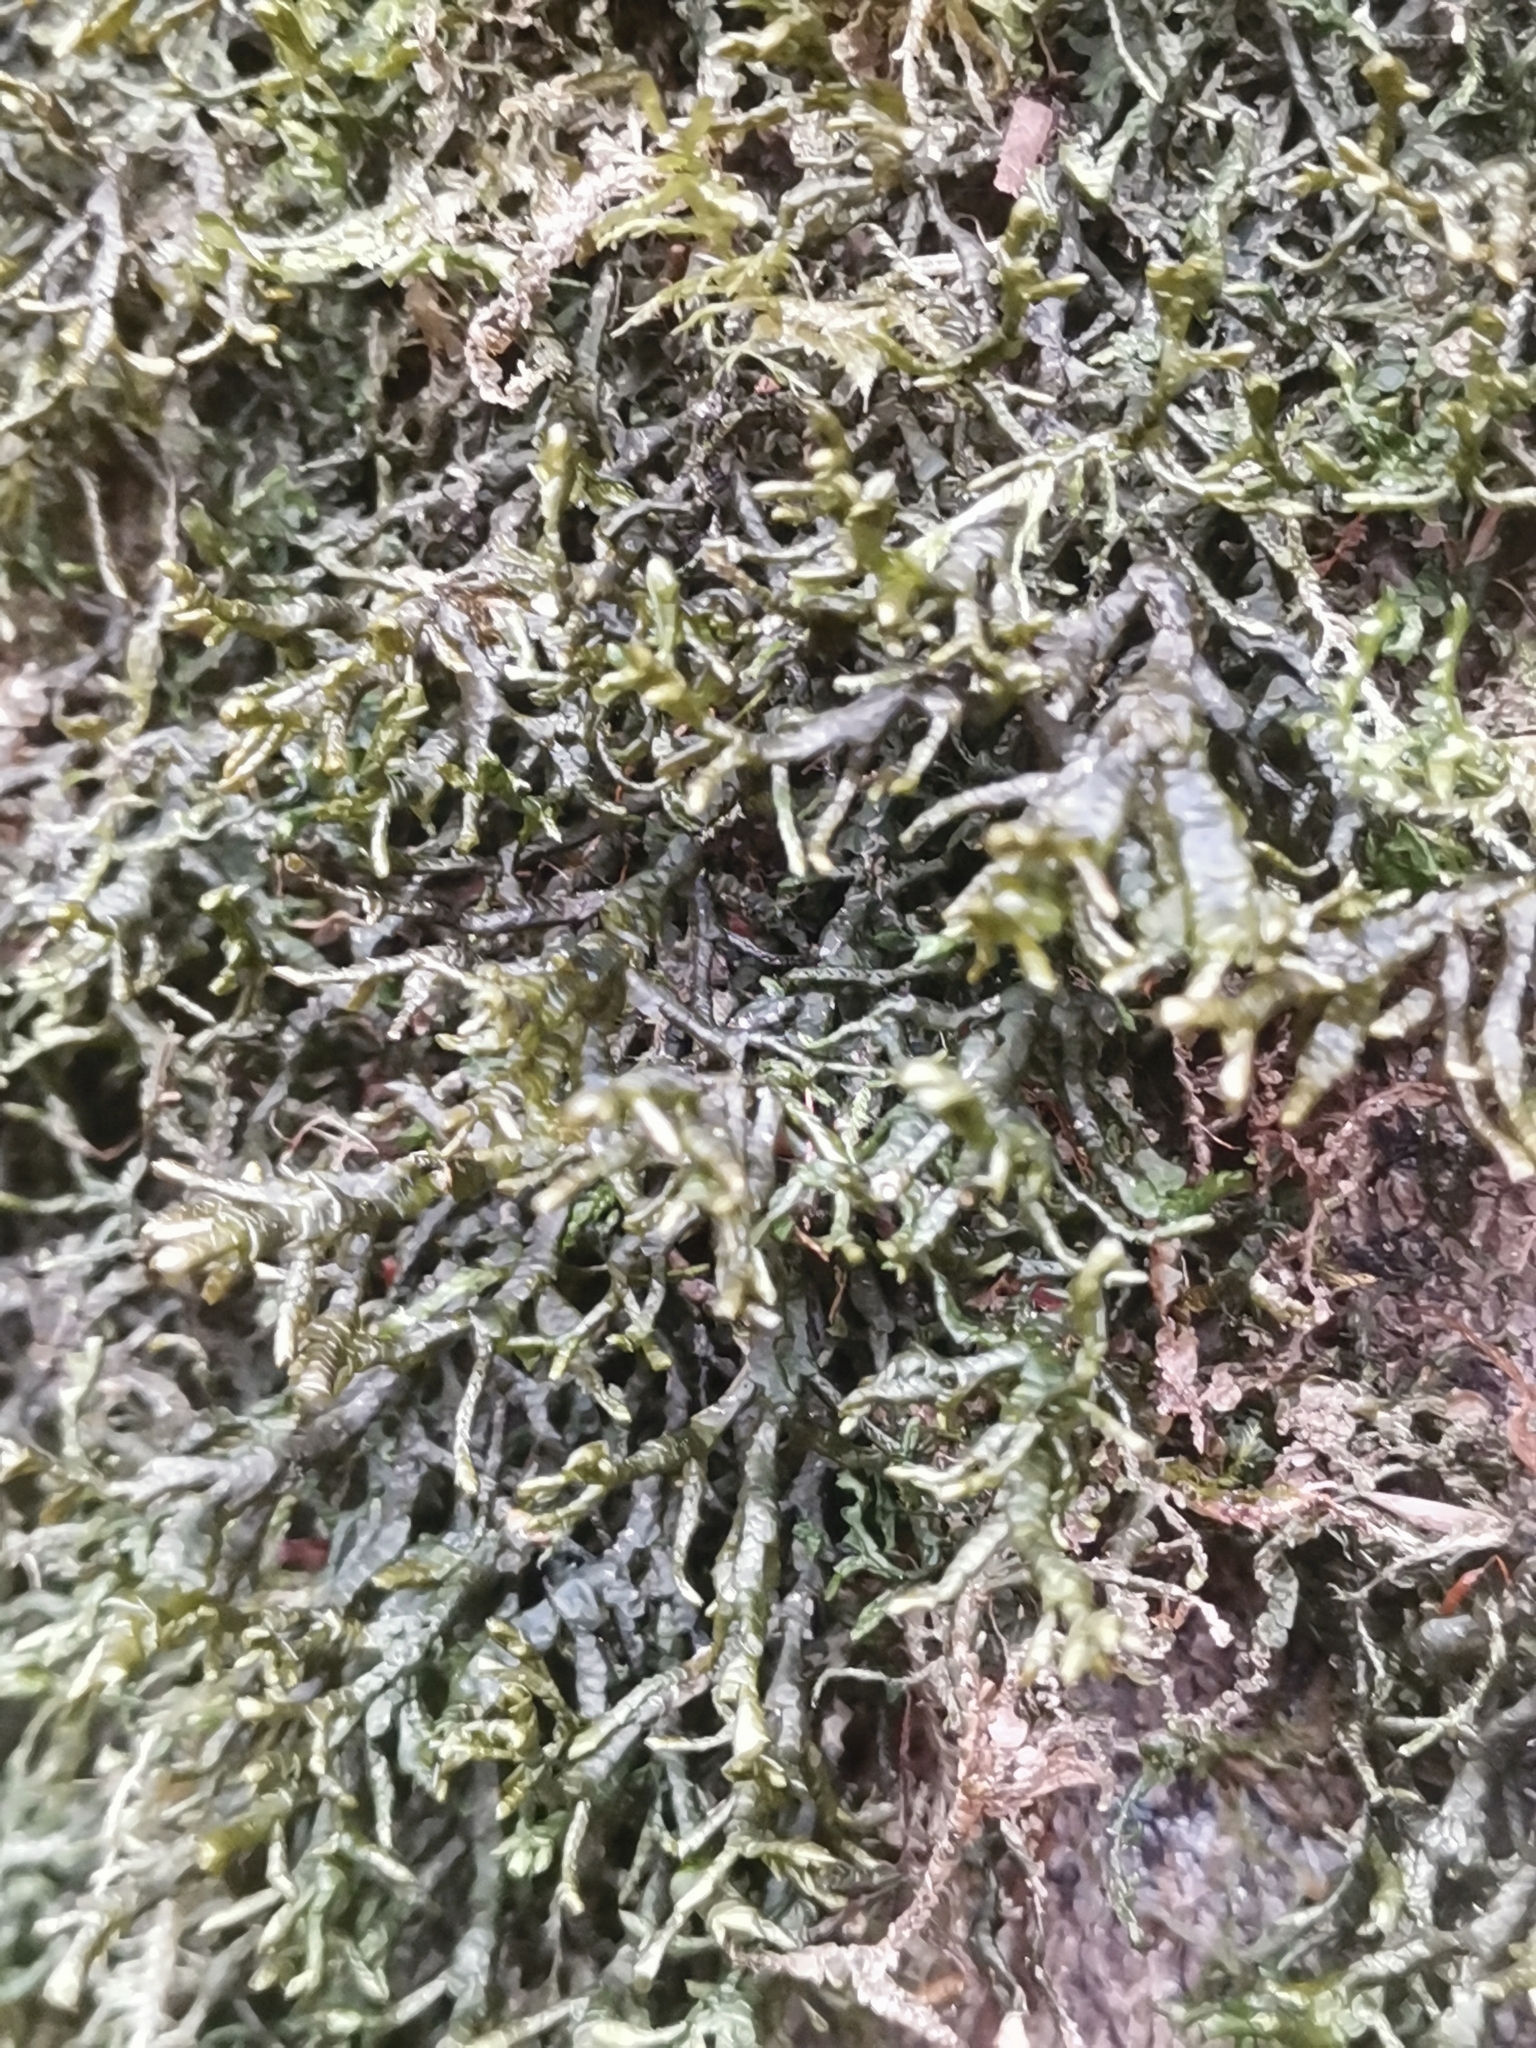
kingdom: Plantae
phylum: Marchantiophyta
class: Jungermanniopsida
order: Porellales
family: Porellaceae
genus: Porella
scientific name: Porella arboris-vitae
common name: Bitter scalewort
